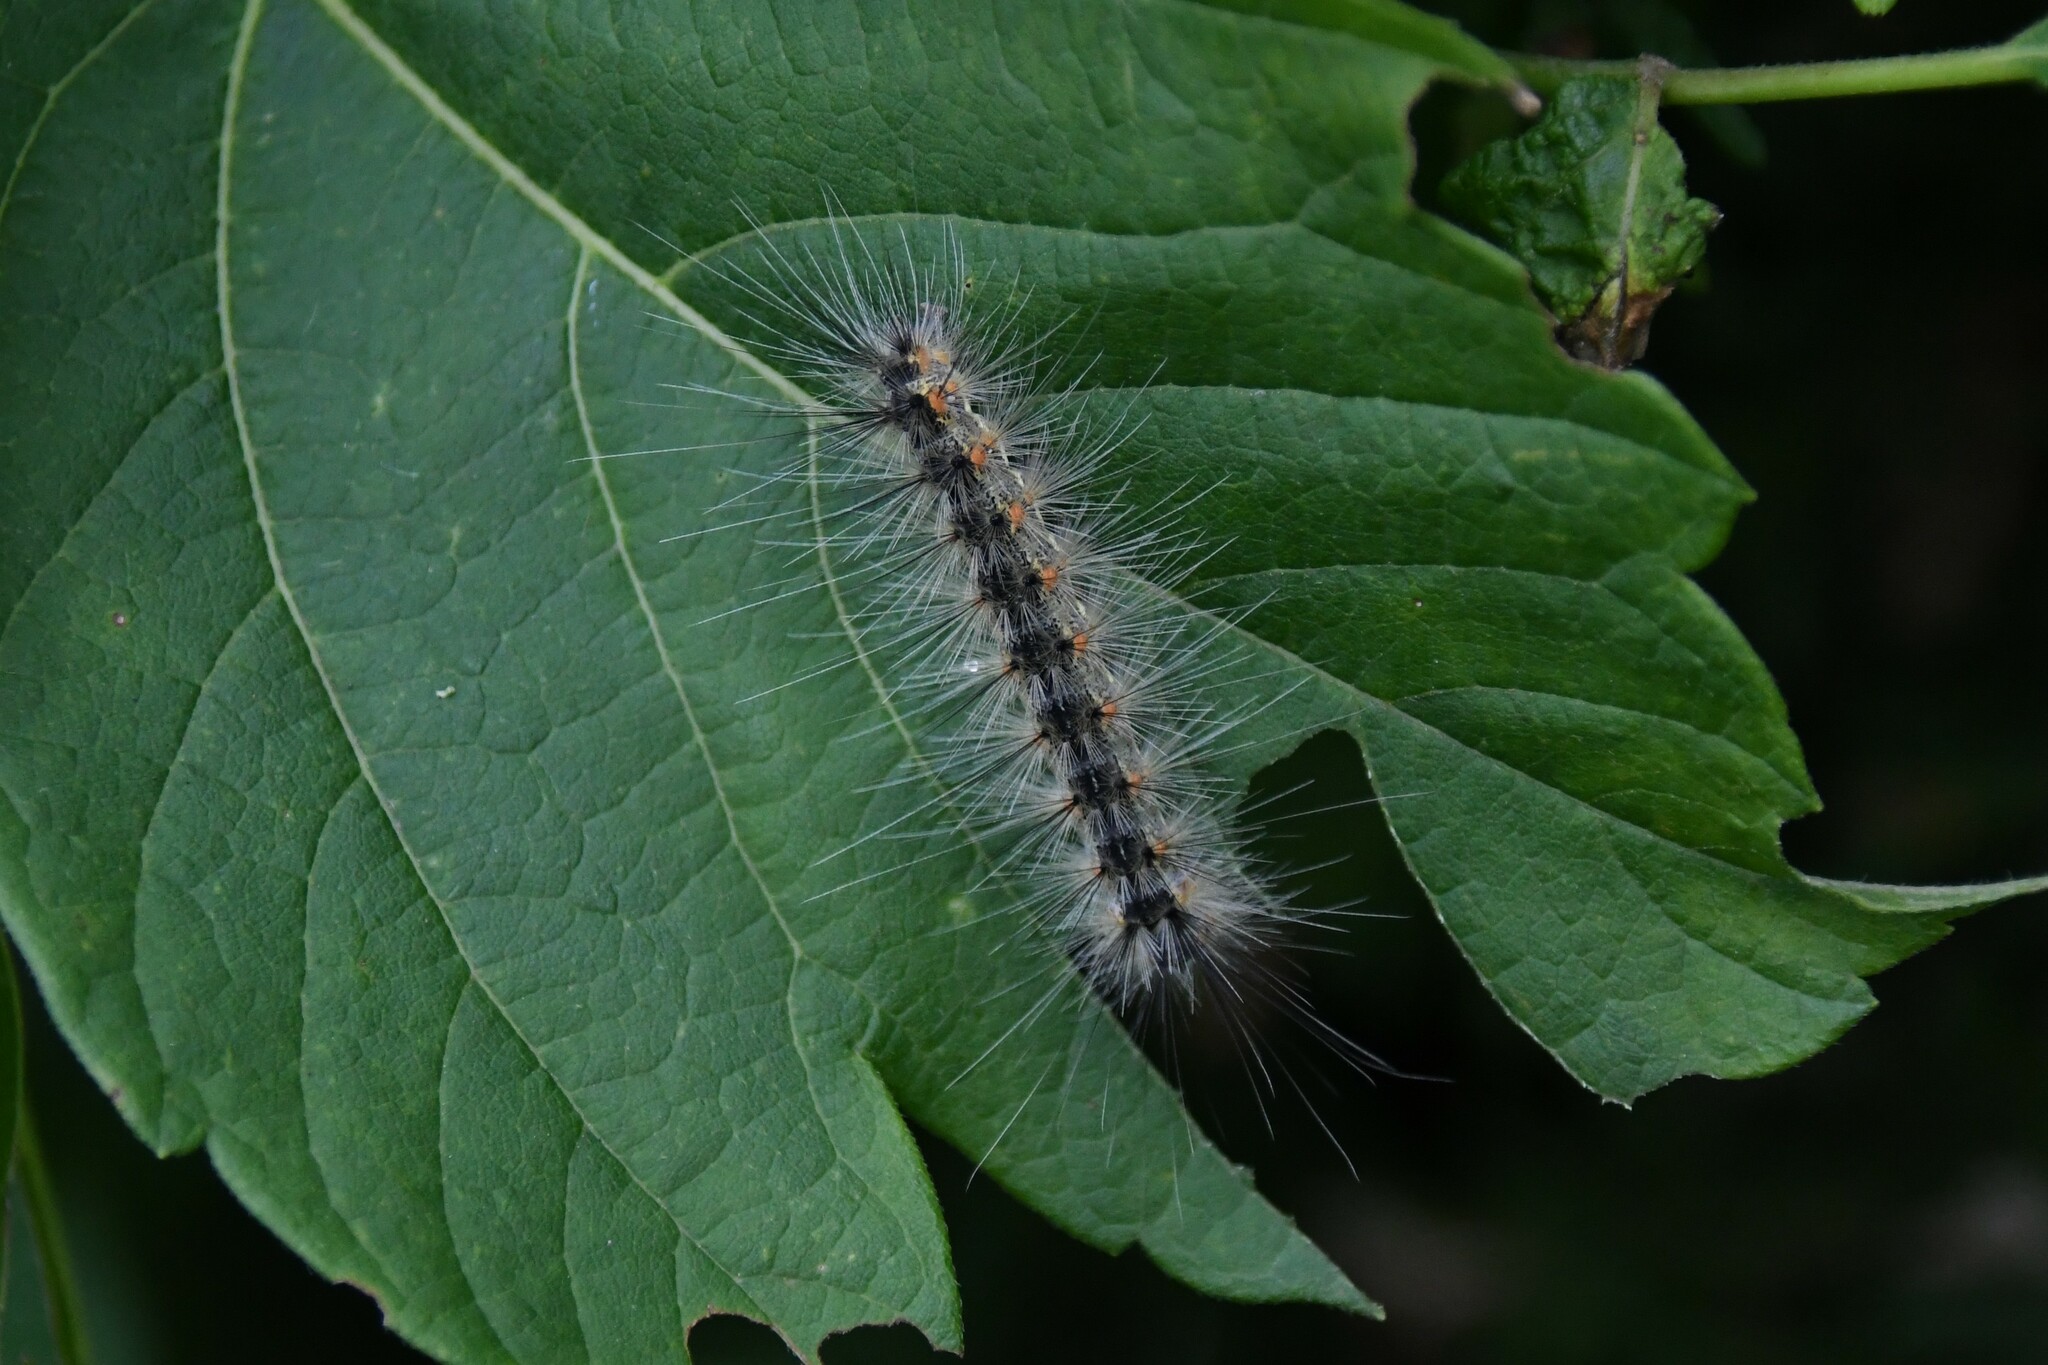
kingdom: Animalia
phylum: Arthropoda
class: Insecta
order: Lepidoptera
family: Erebidae
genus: Hyphantria
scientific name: Hyphantria cunea
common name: American white moth
